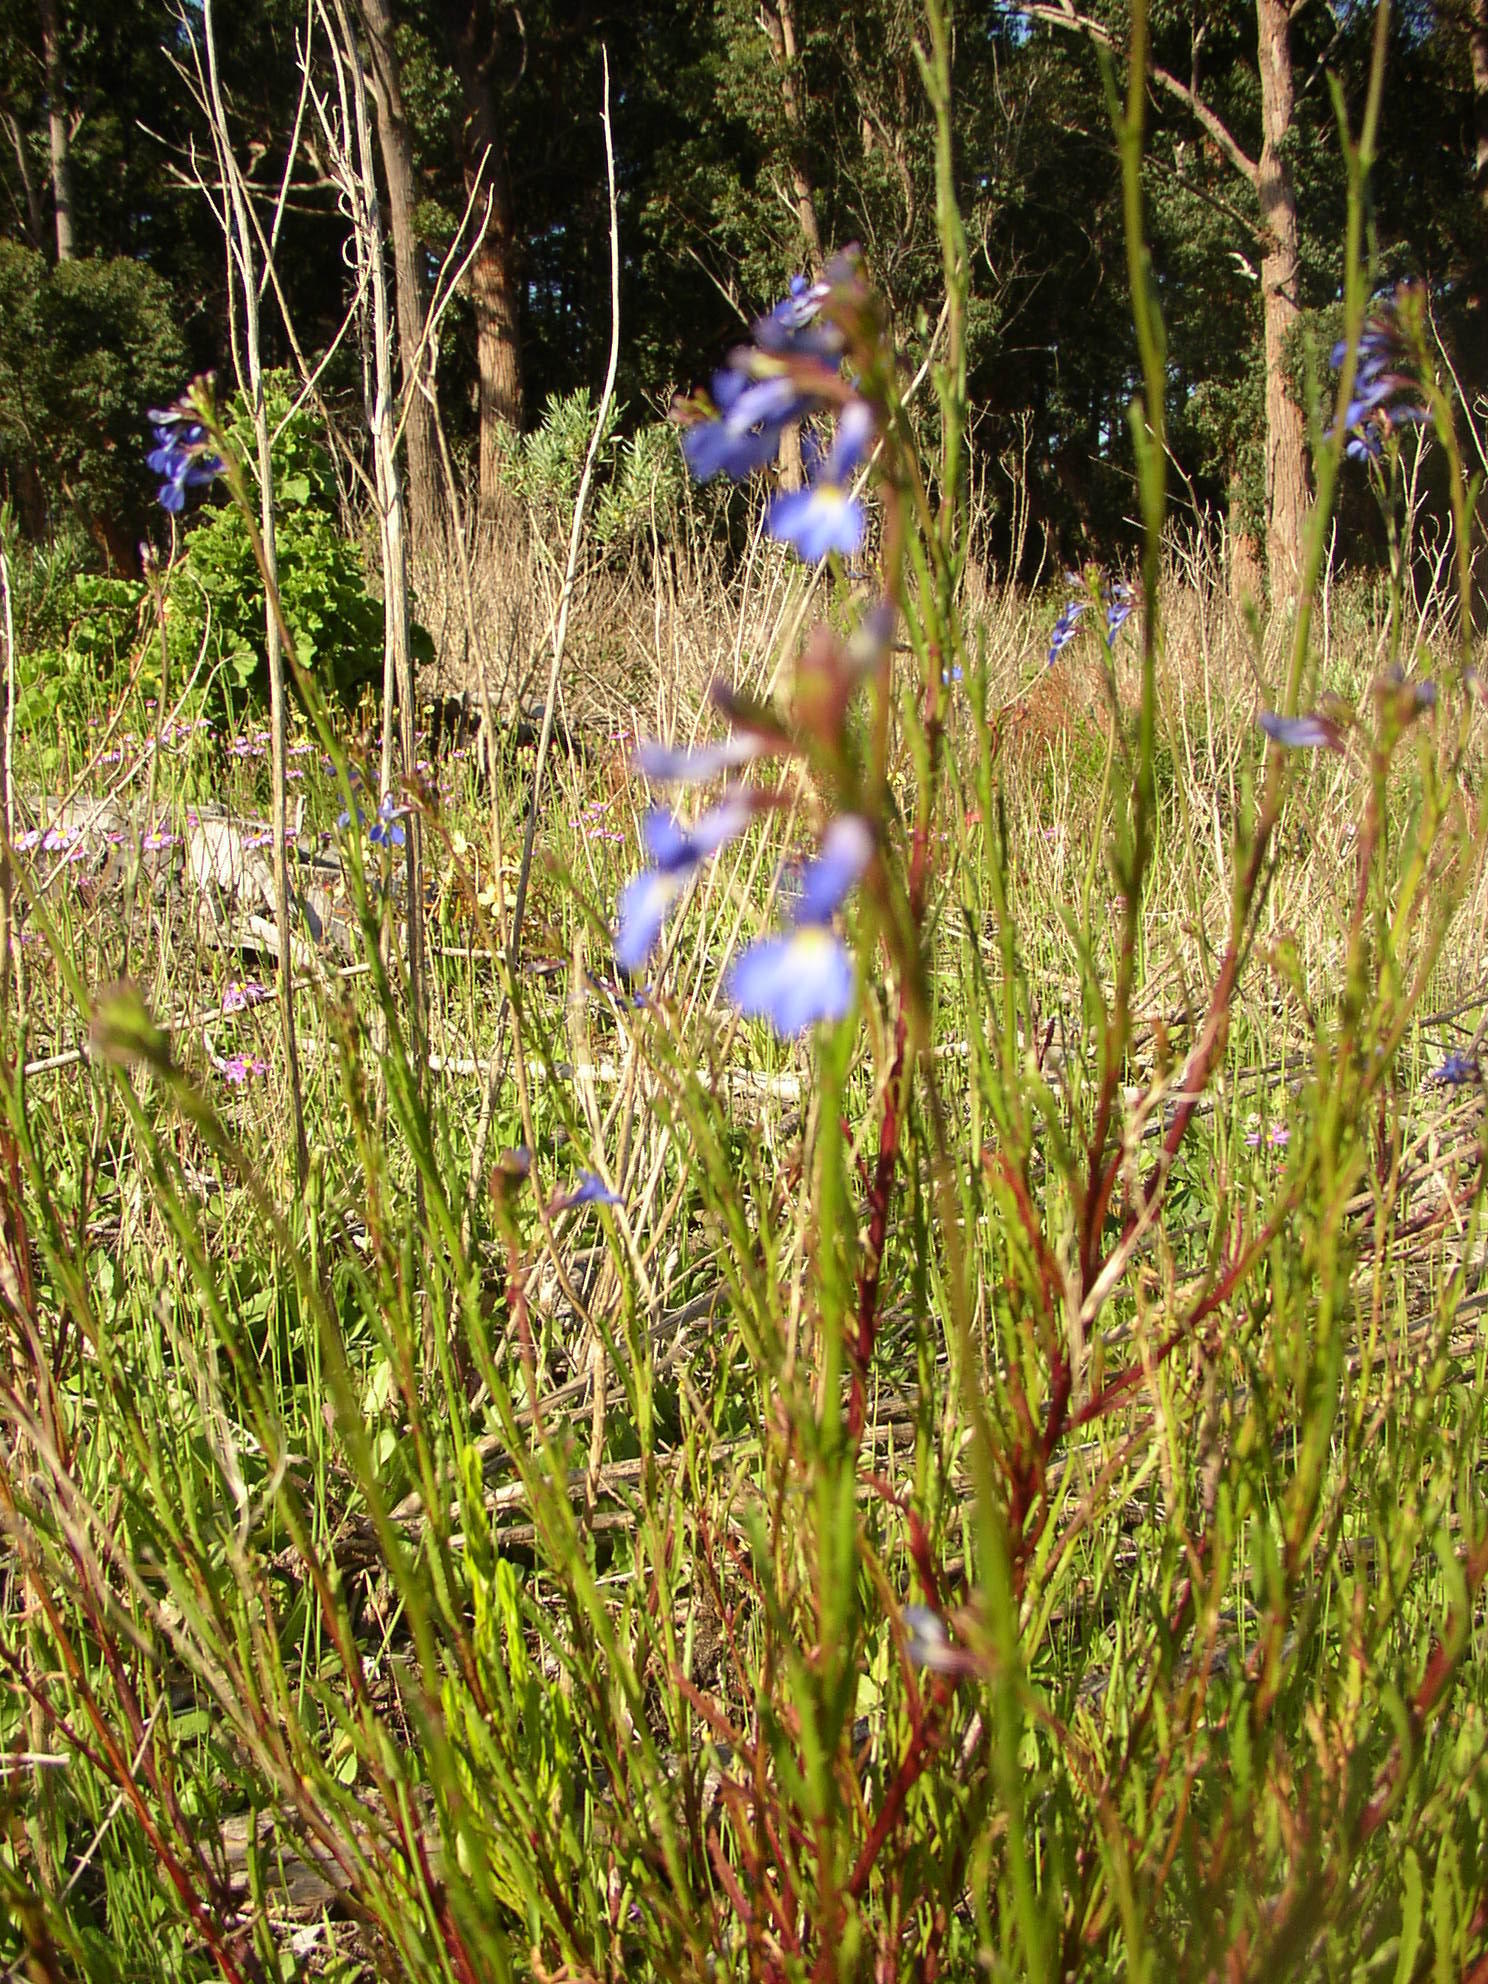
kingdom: Plantae
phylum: Tracheophyta
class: Magnoliopsida
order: Asterales
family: Campanulaceae
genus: Lobelia
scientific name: Lobelia comosa
